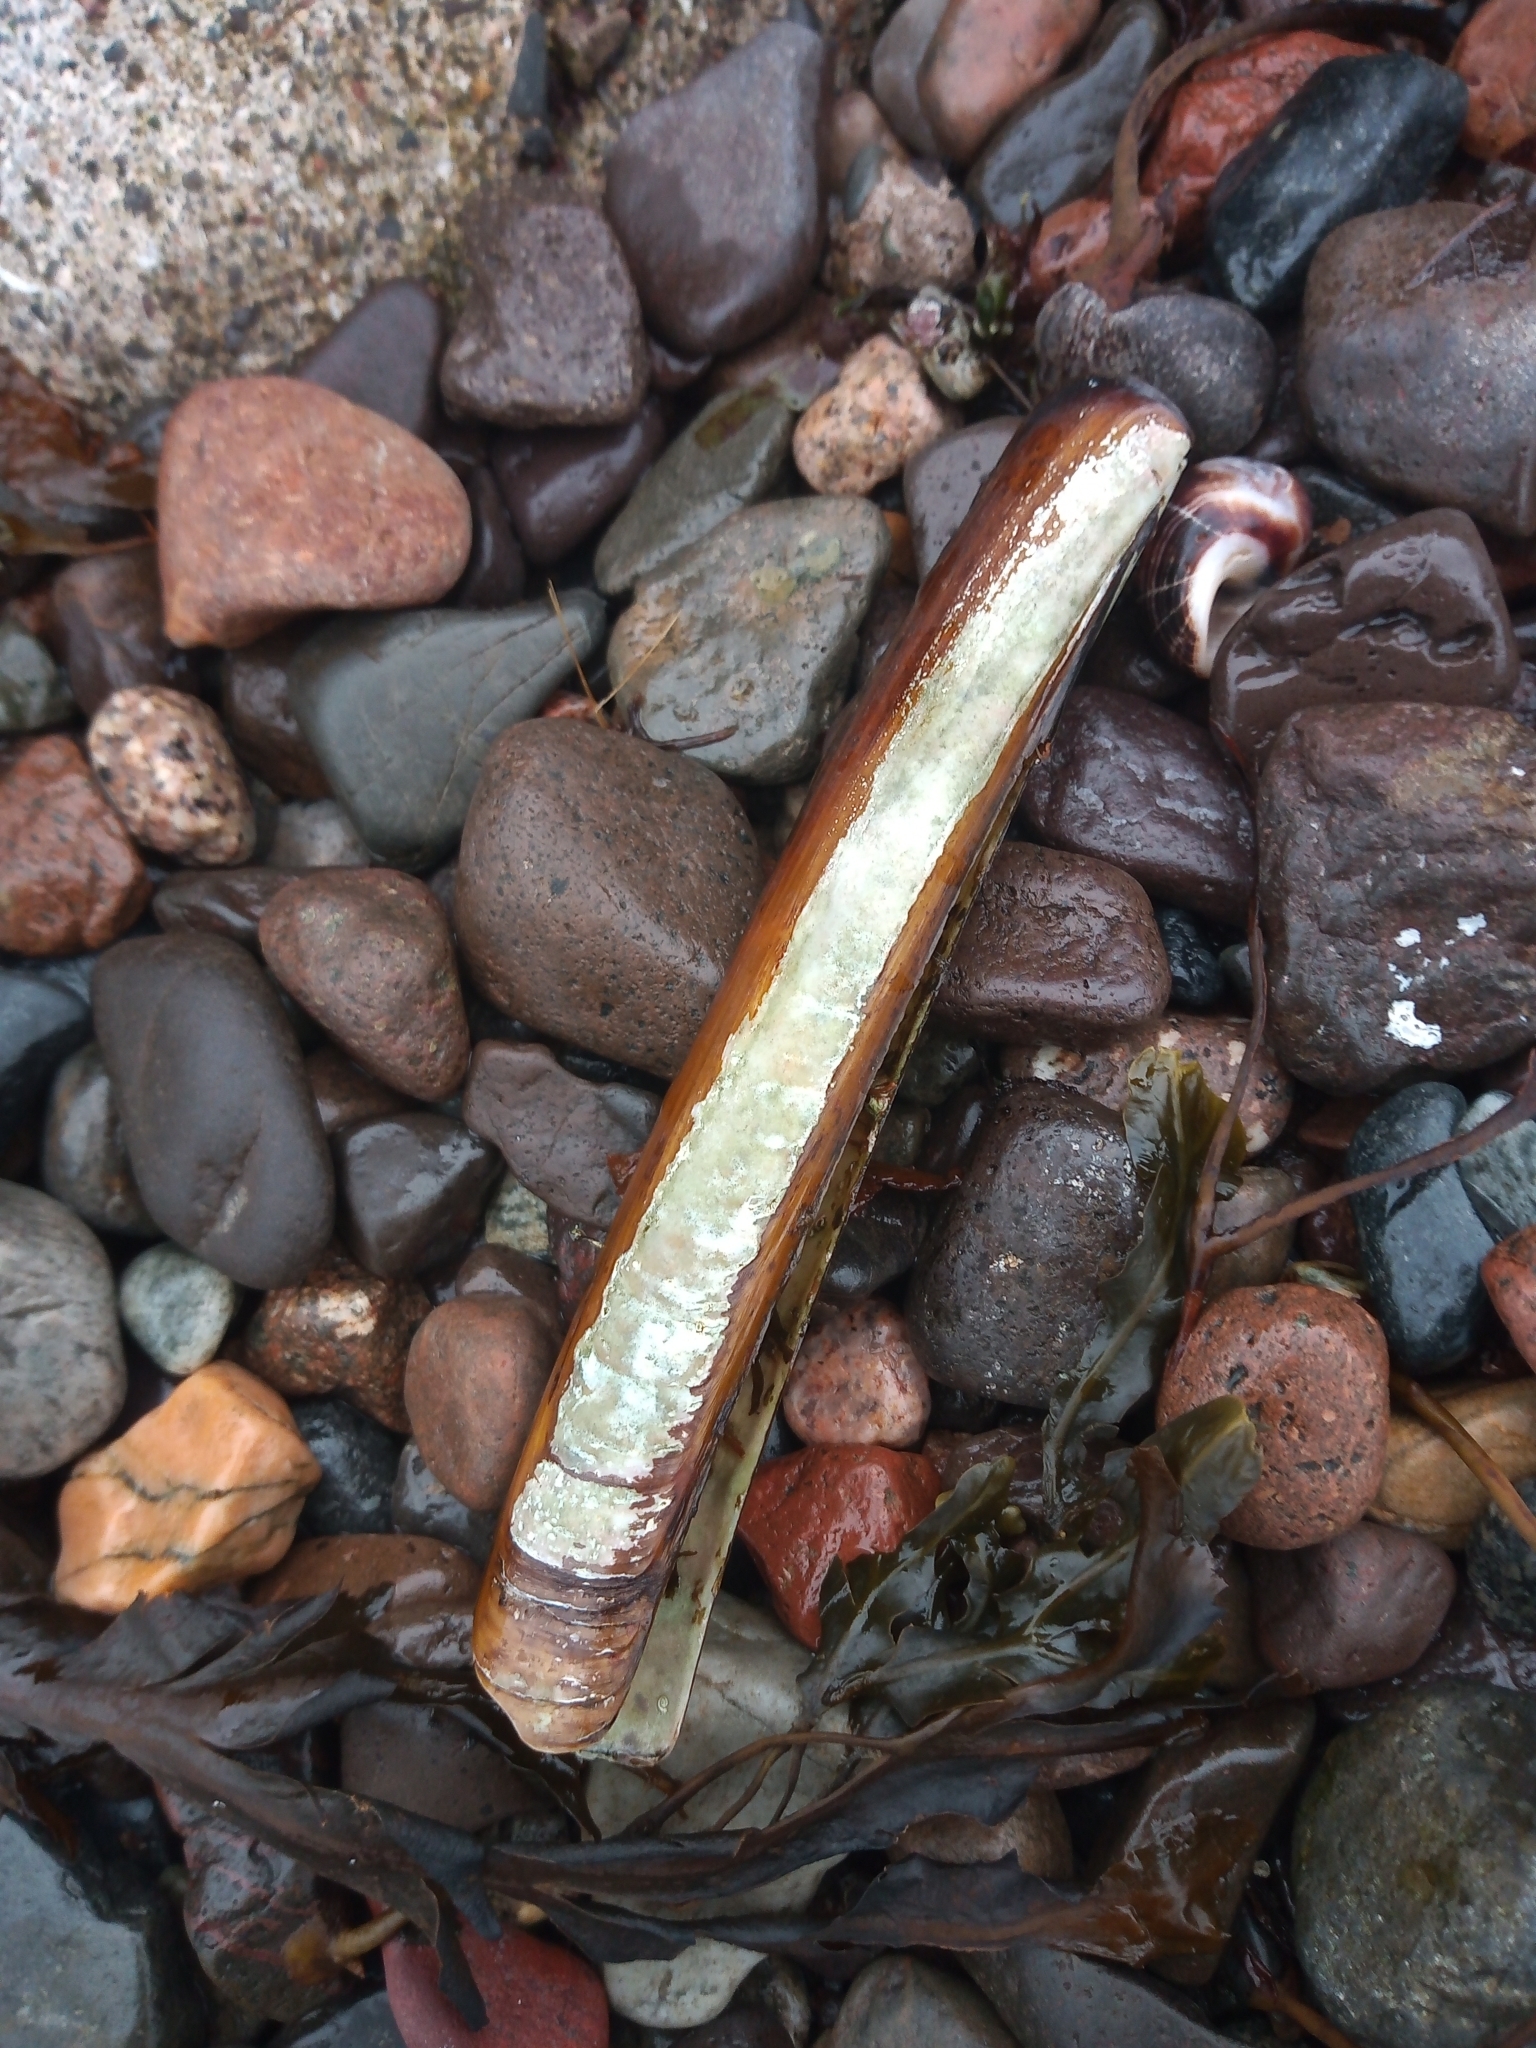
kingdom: Animalia
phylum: Mollusca
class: Bivalvia
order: Adapedonta
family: Pharidae
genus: Ensis
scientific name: Ensis leei
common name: American jack knife clam
